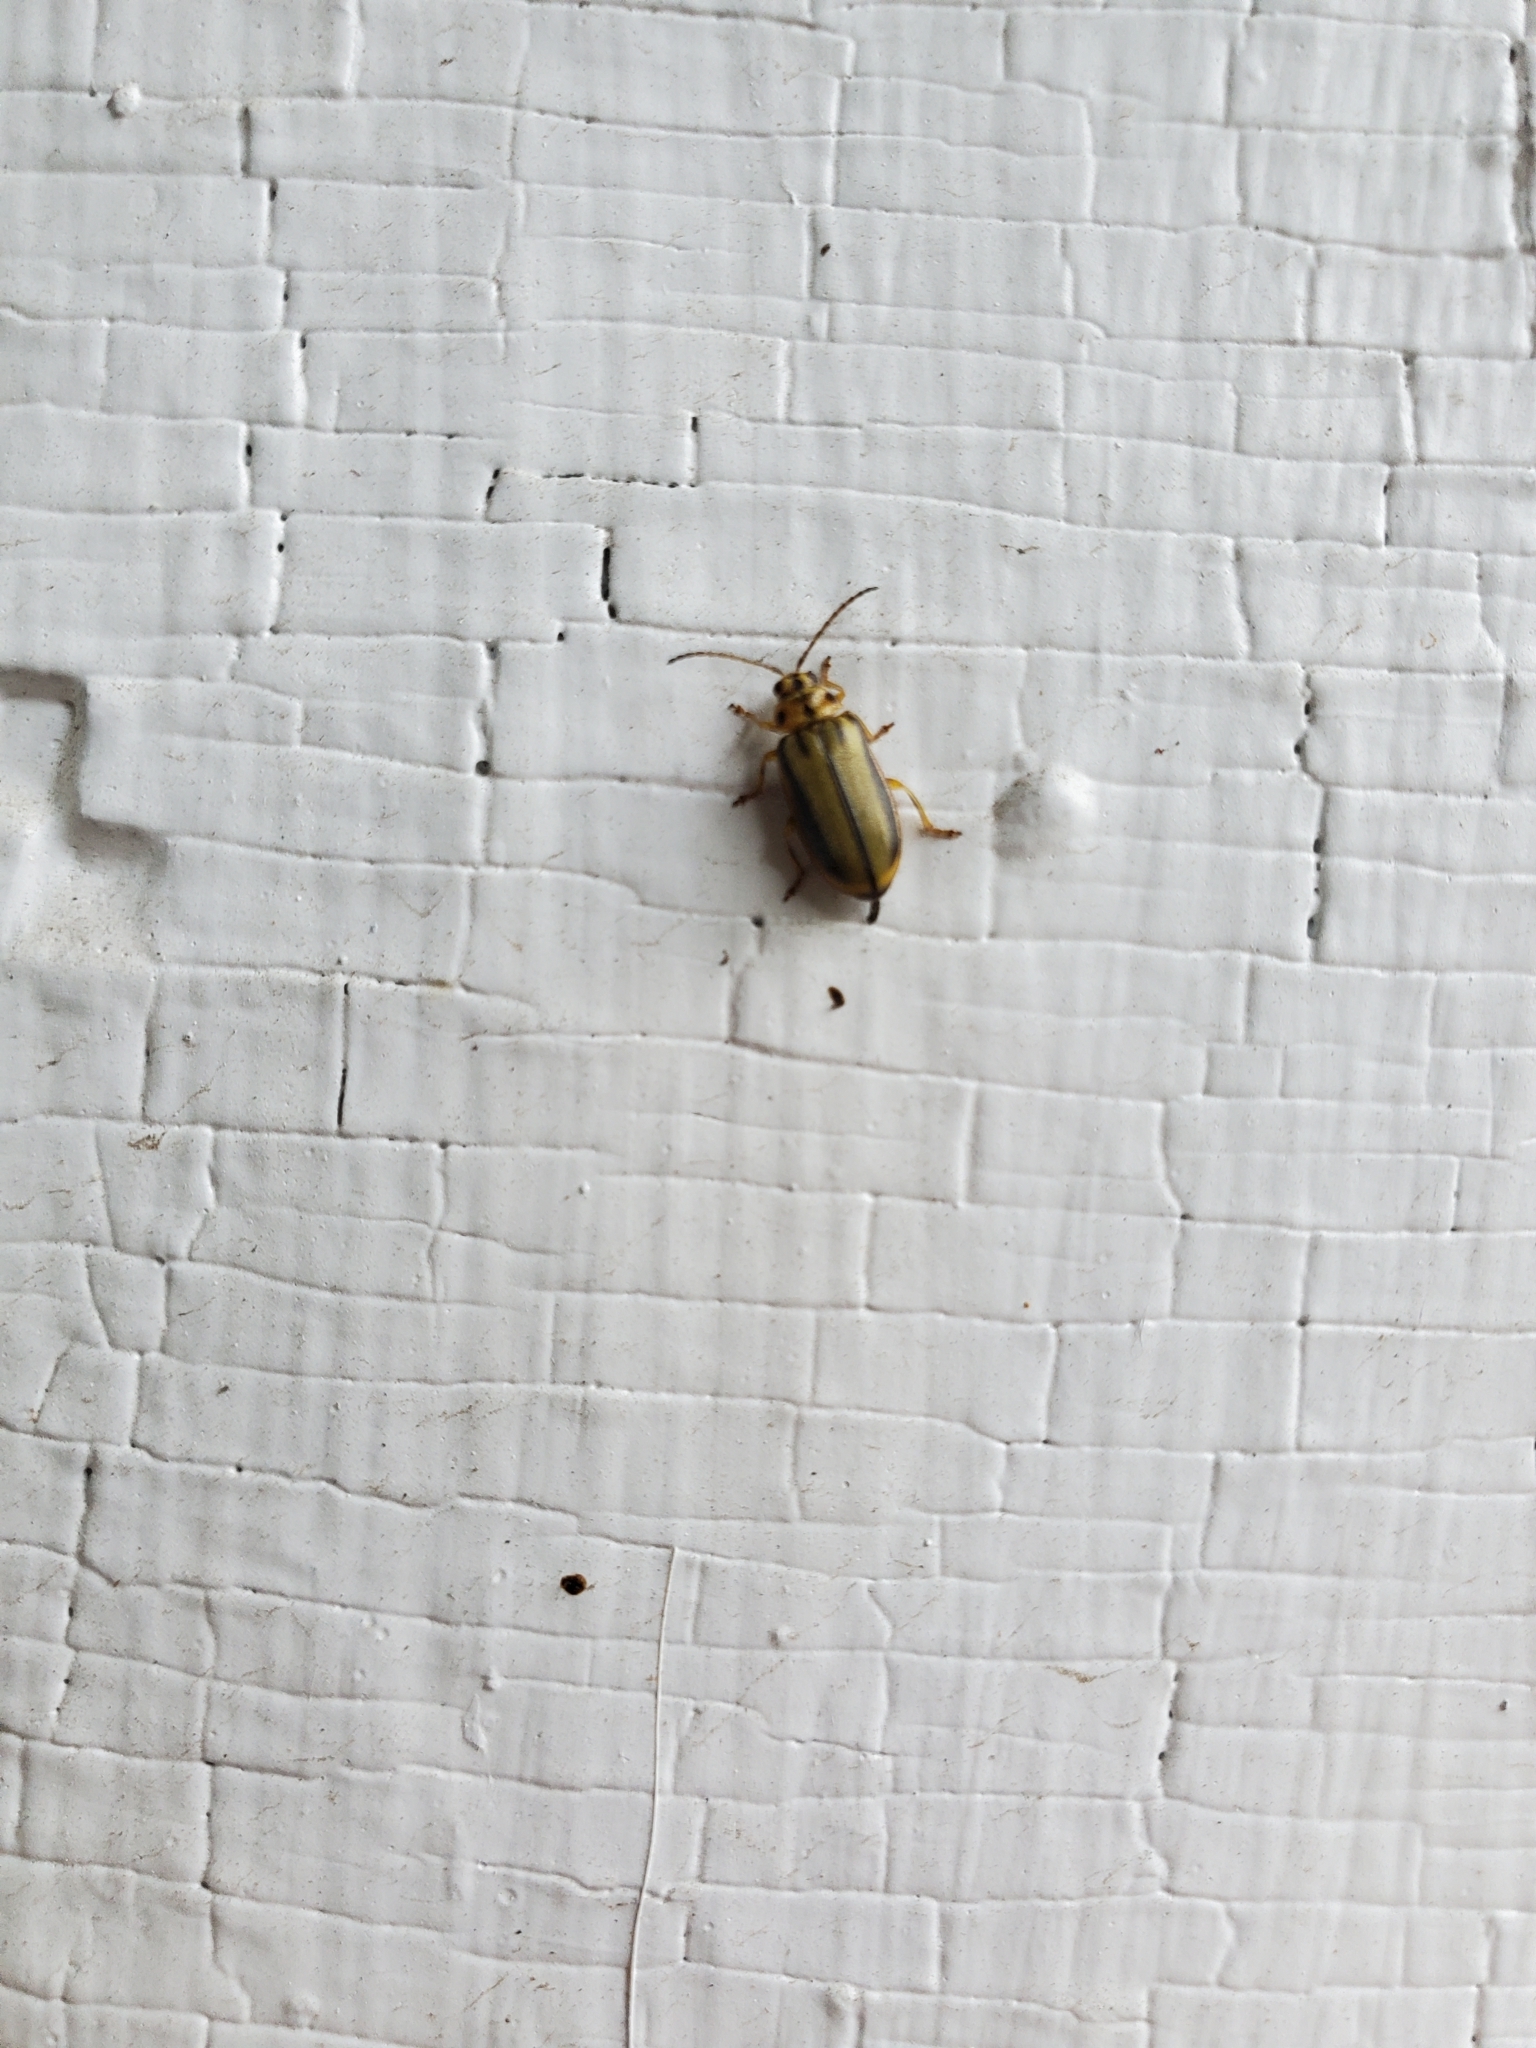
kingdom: Animalia
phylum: Arthropoda
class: Insecta
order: Coleoptera
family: Chrysomelidae
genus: Xanthogaleruca
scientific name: Xanthogaleruca luteola
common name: Elm leaf beetle
